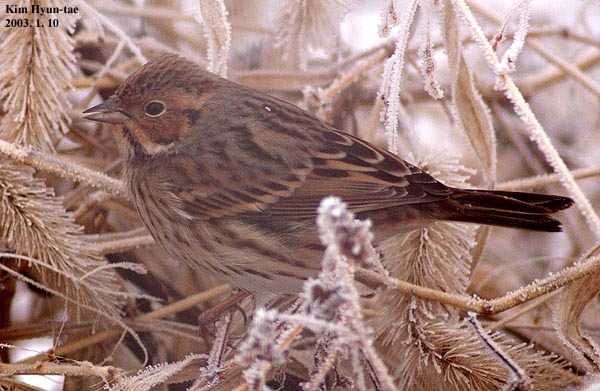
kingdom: Animalia
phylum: Chordata
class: Aves
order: Passeriformes
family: Emberizidae
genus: Emberiza
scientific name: Emberiza pusilla
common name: Little bunting
